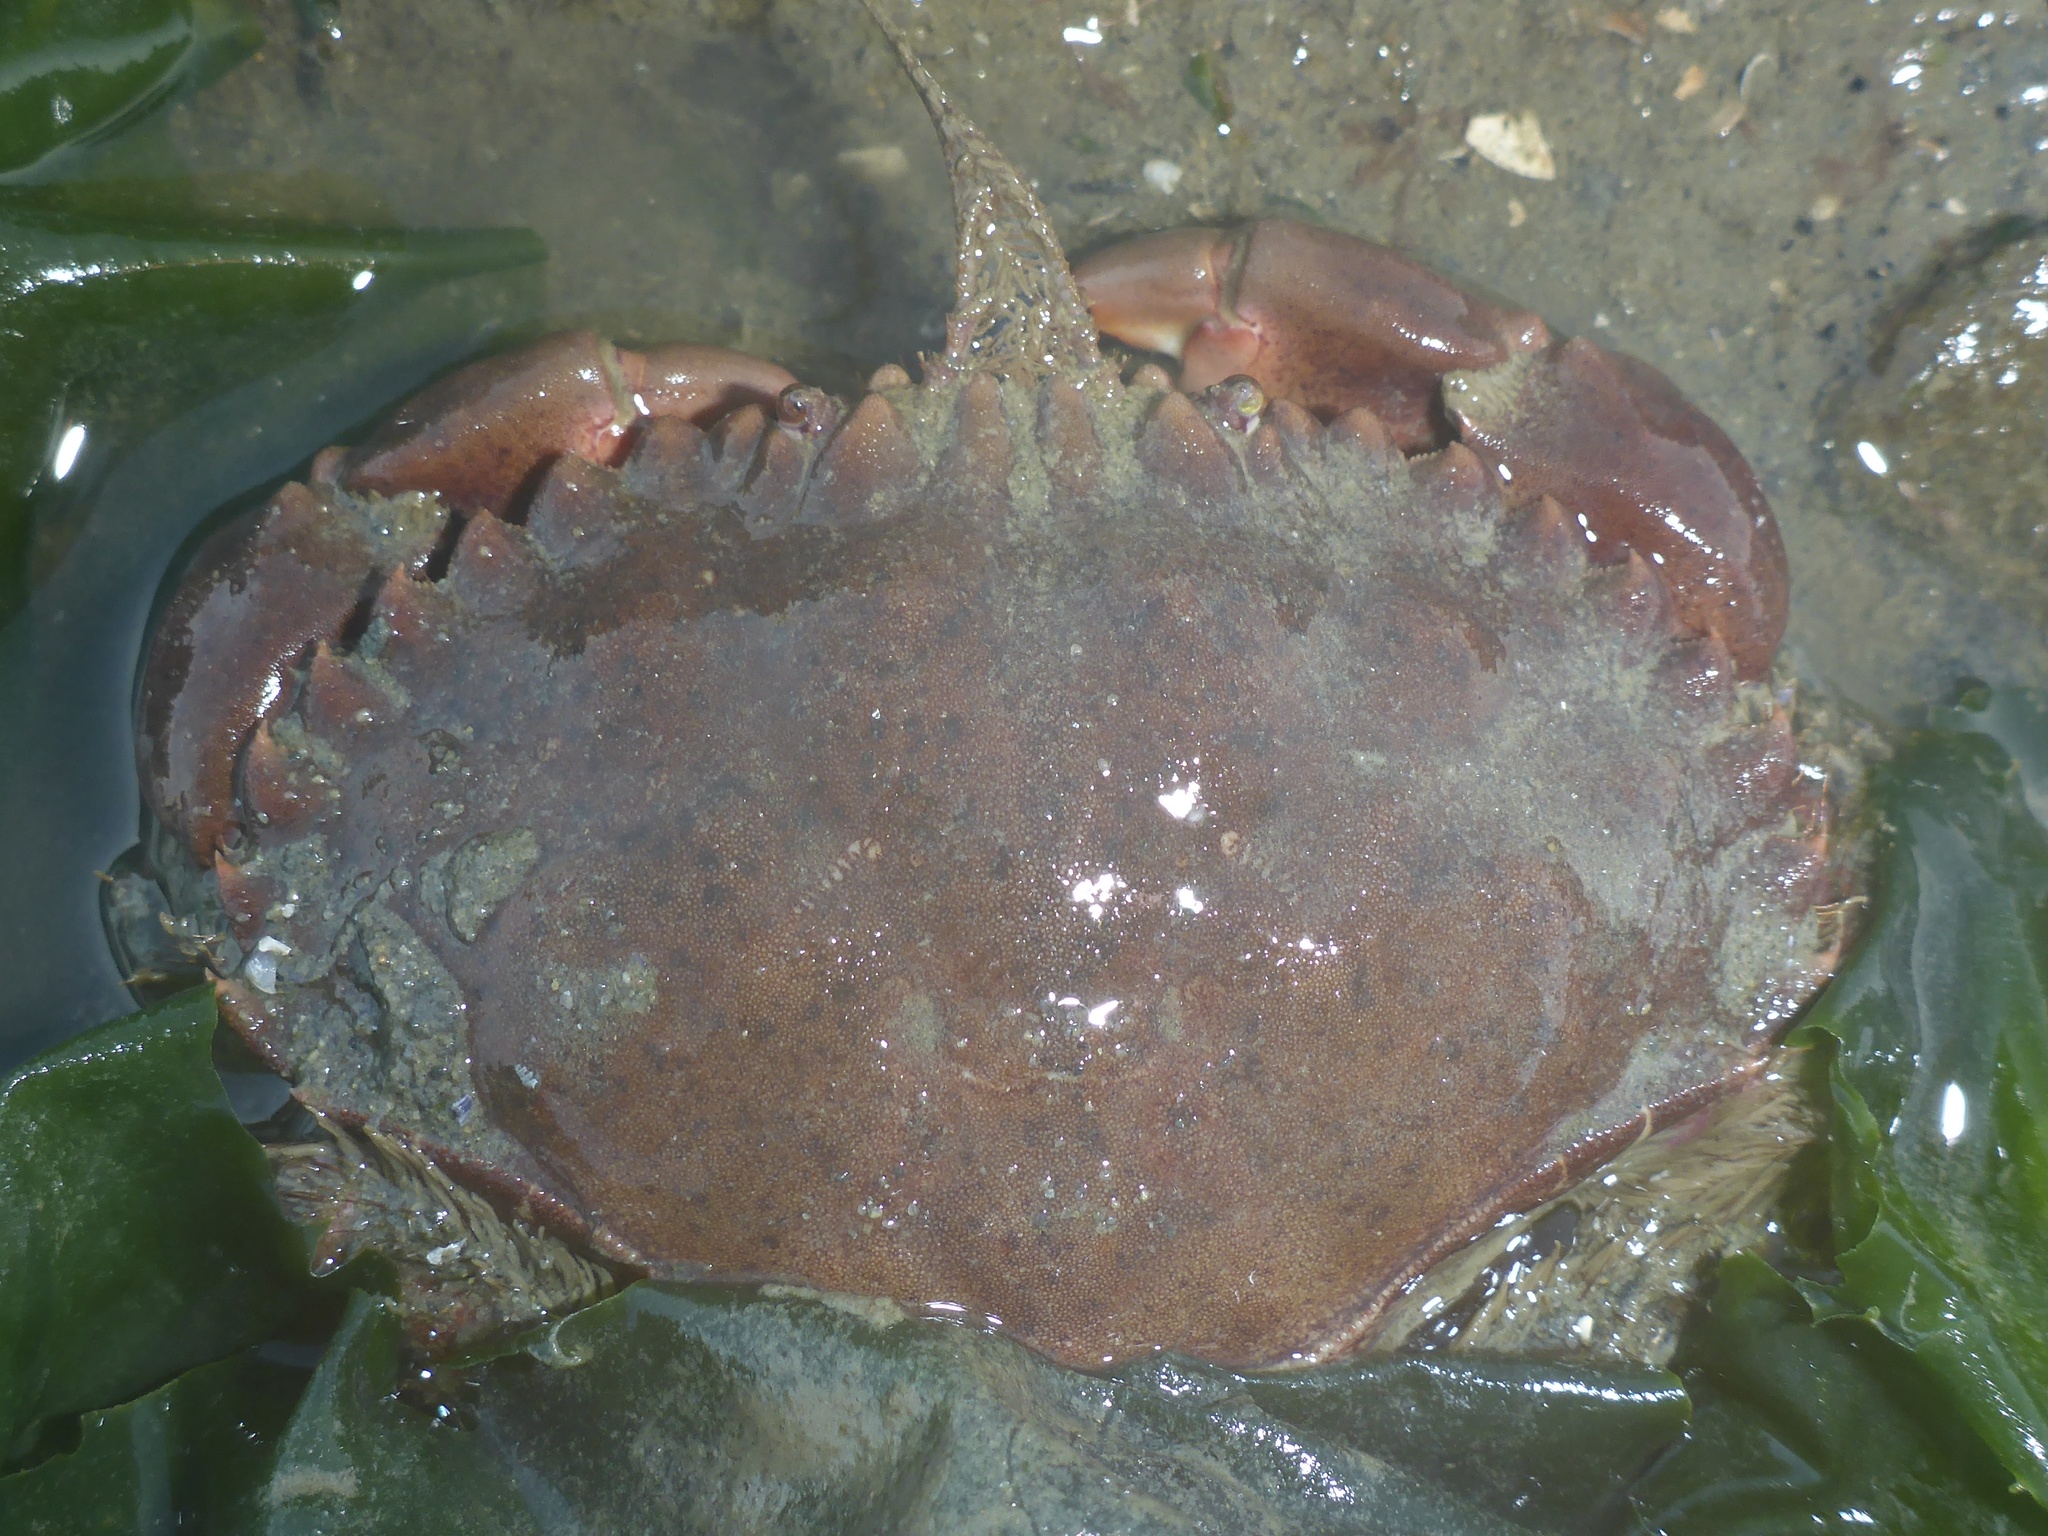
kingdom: Animalia
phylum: Arthropoda
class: Malacostraca
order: Decapoda
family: Cancridae
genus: Romaleon
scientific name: Romaleon antennarium
